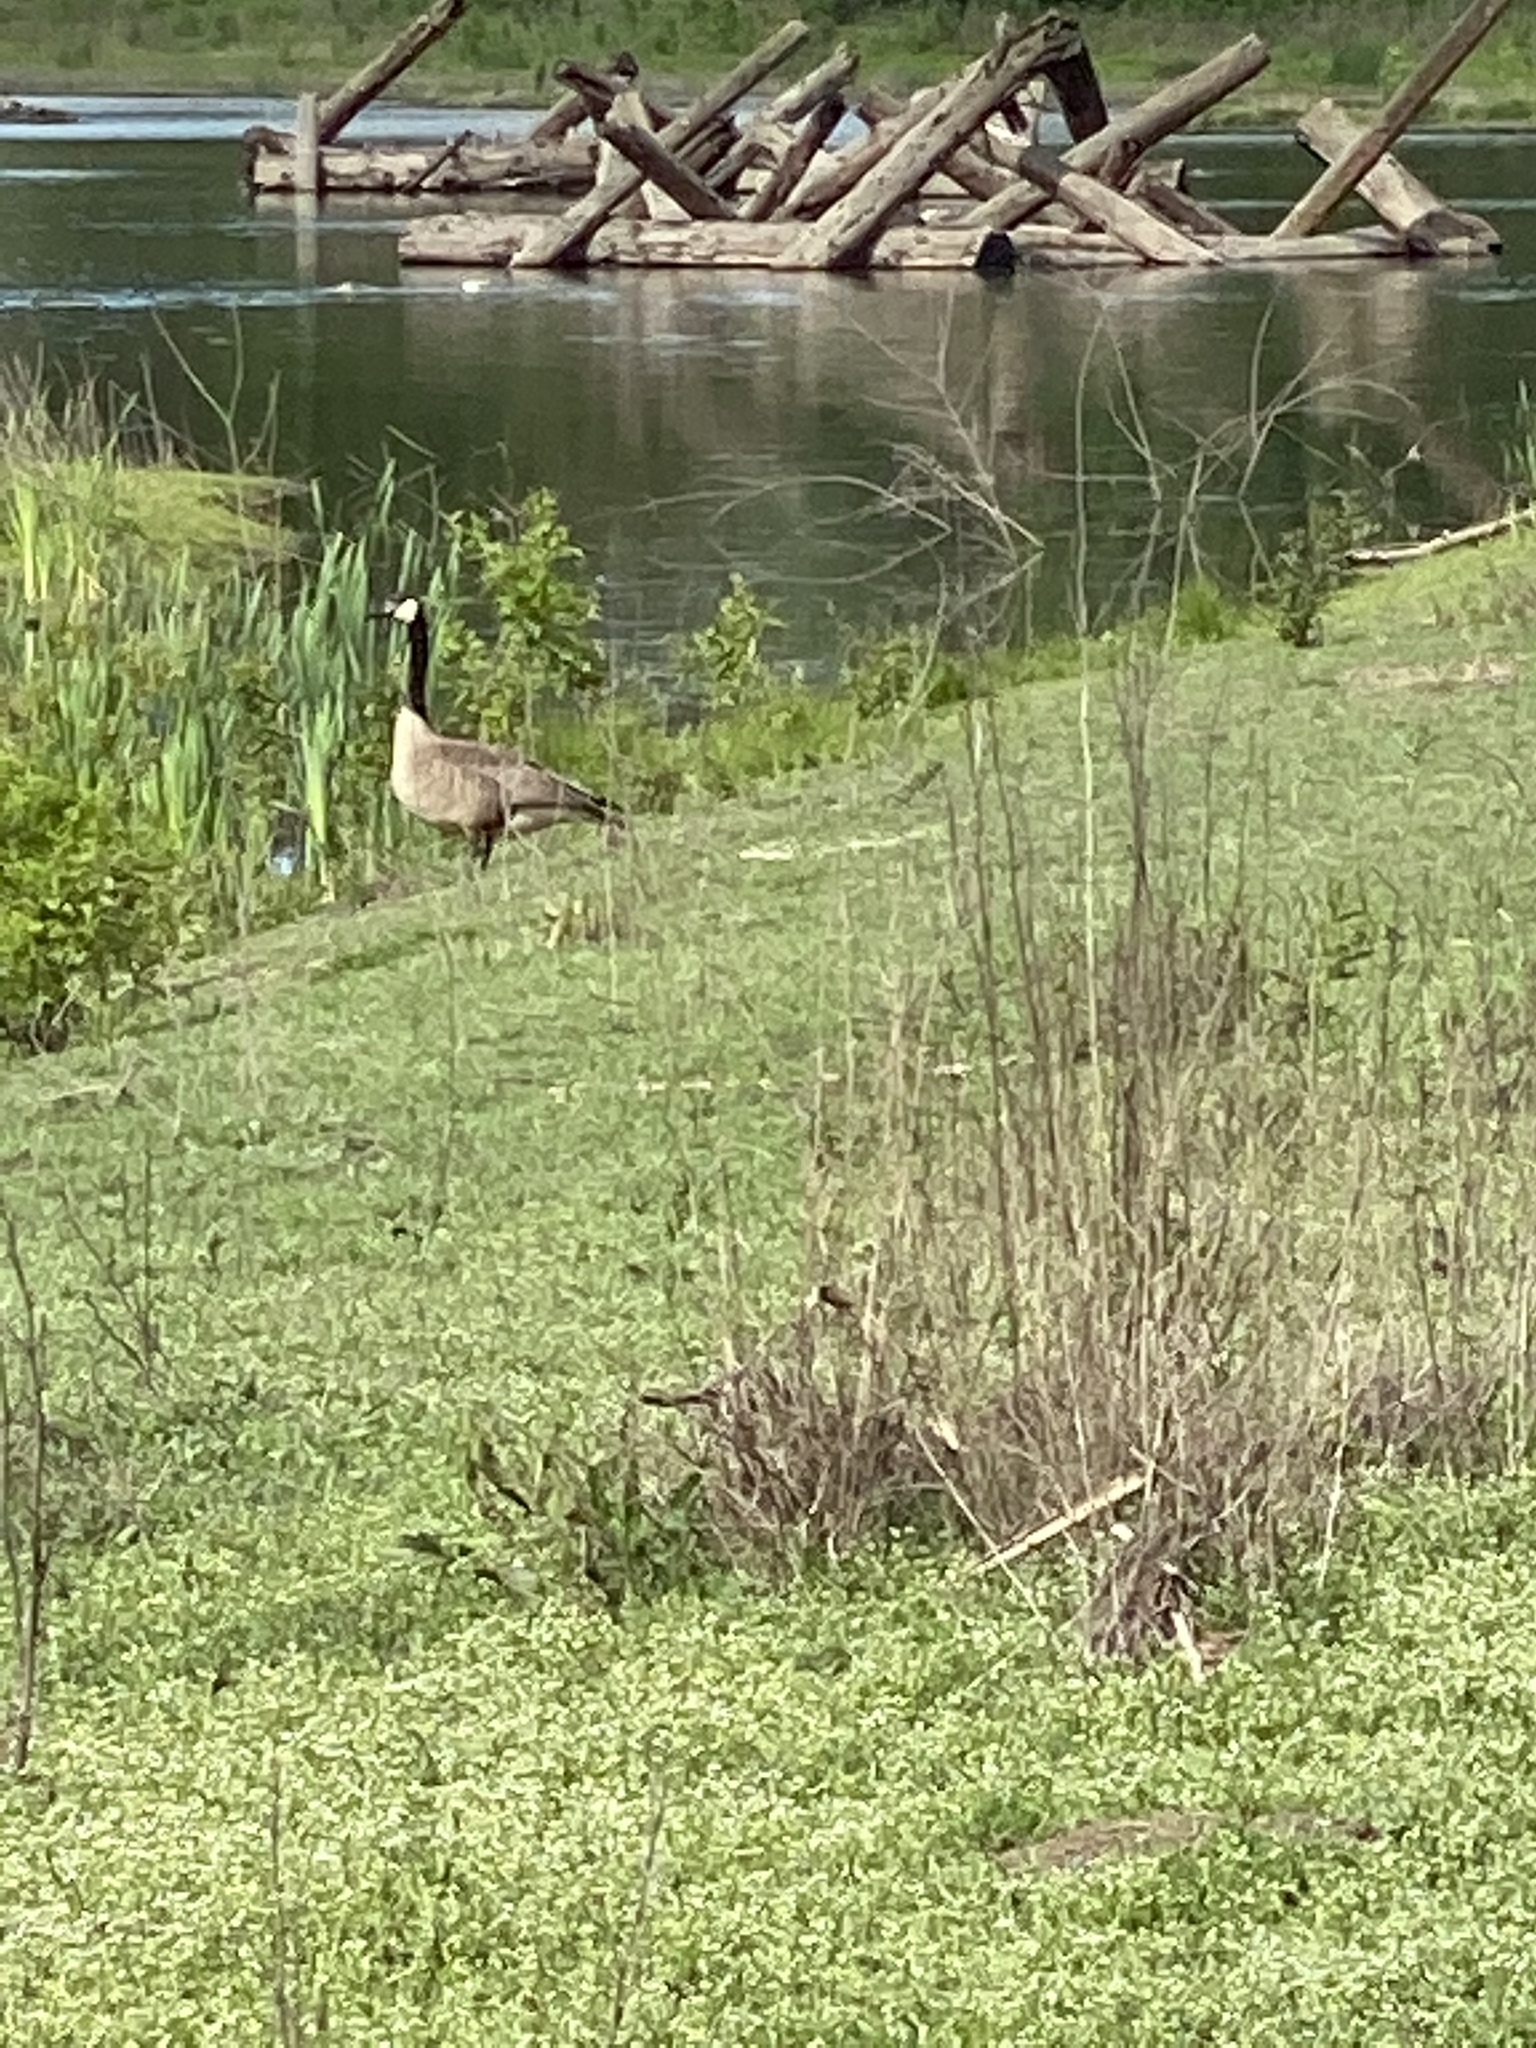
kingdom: Animalia
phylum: Chordata
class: Aves
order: Anseriformes
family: Anatidae
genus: Branta
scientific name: Branta canadensis
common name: Canada goose
